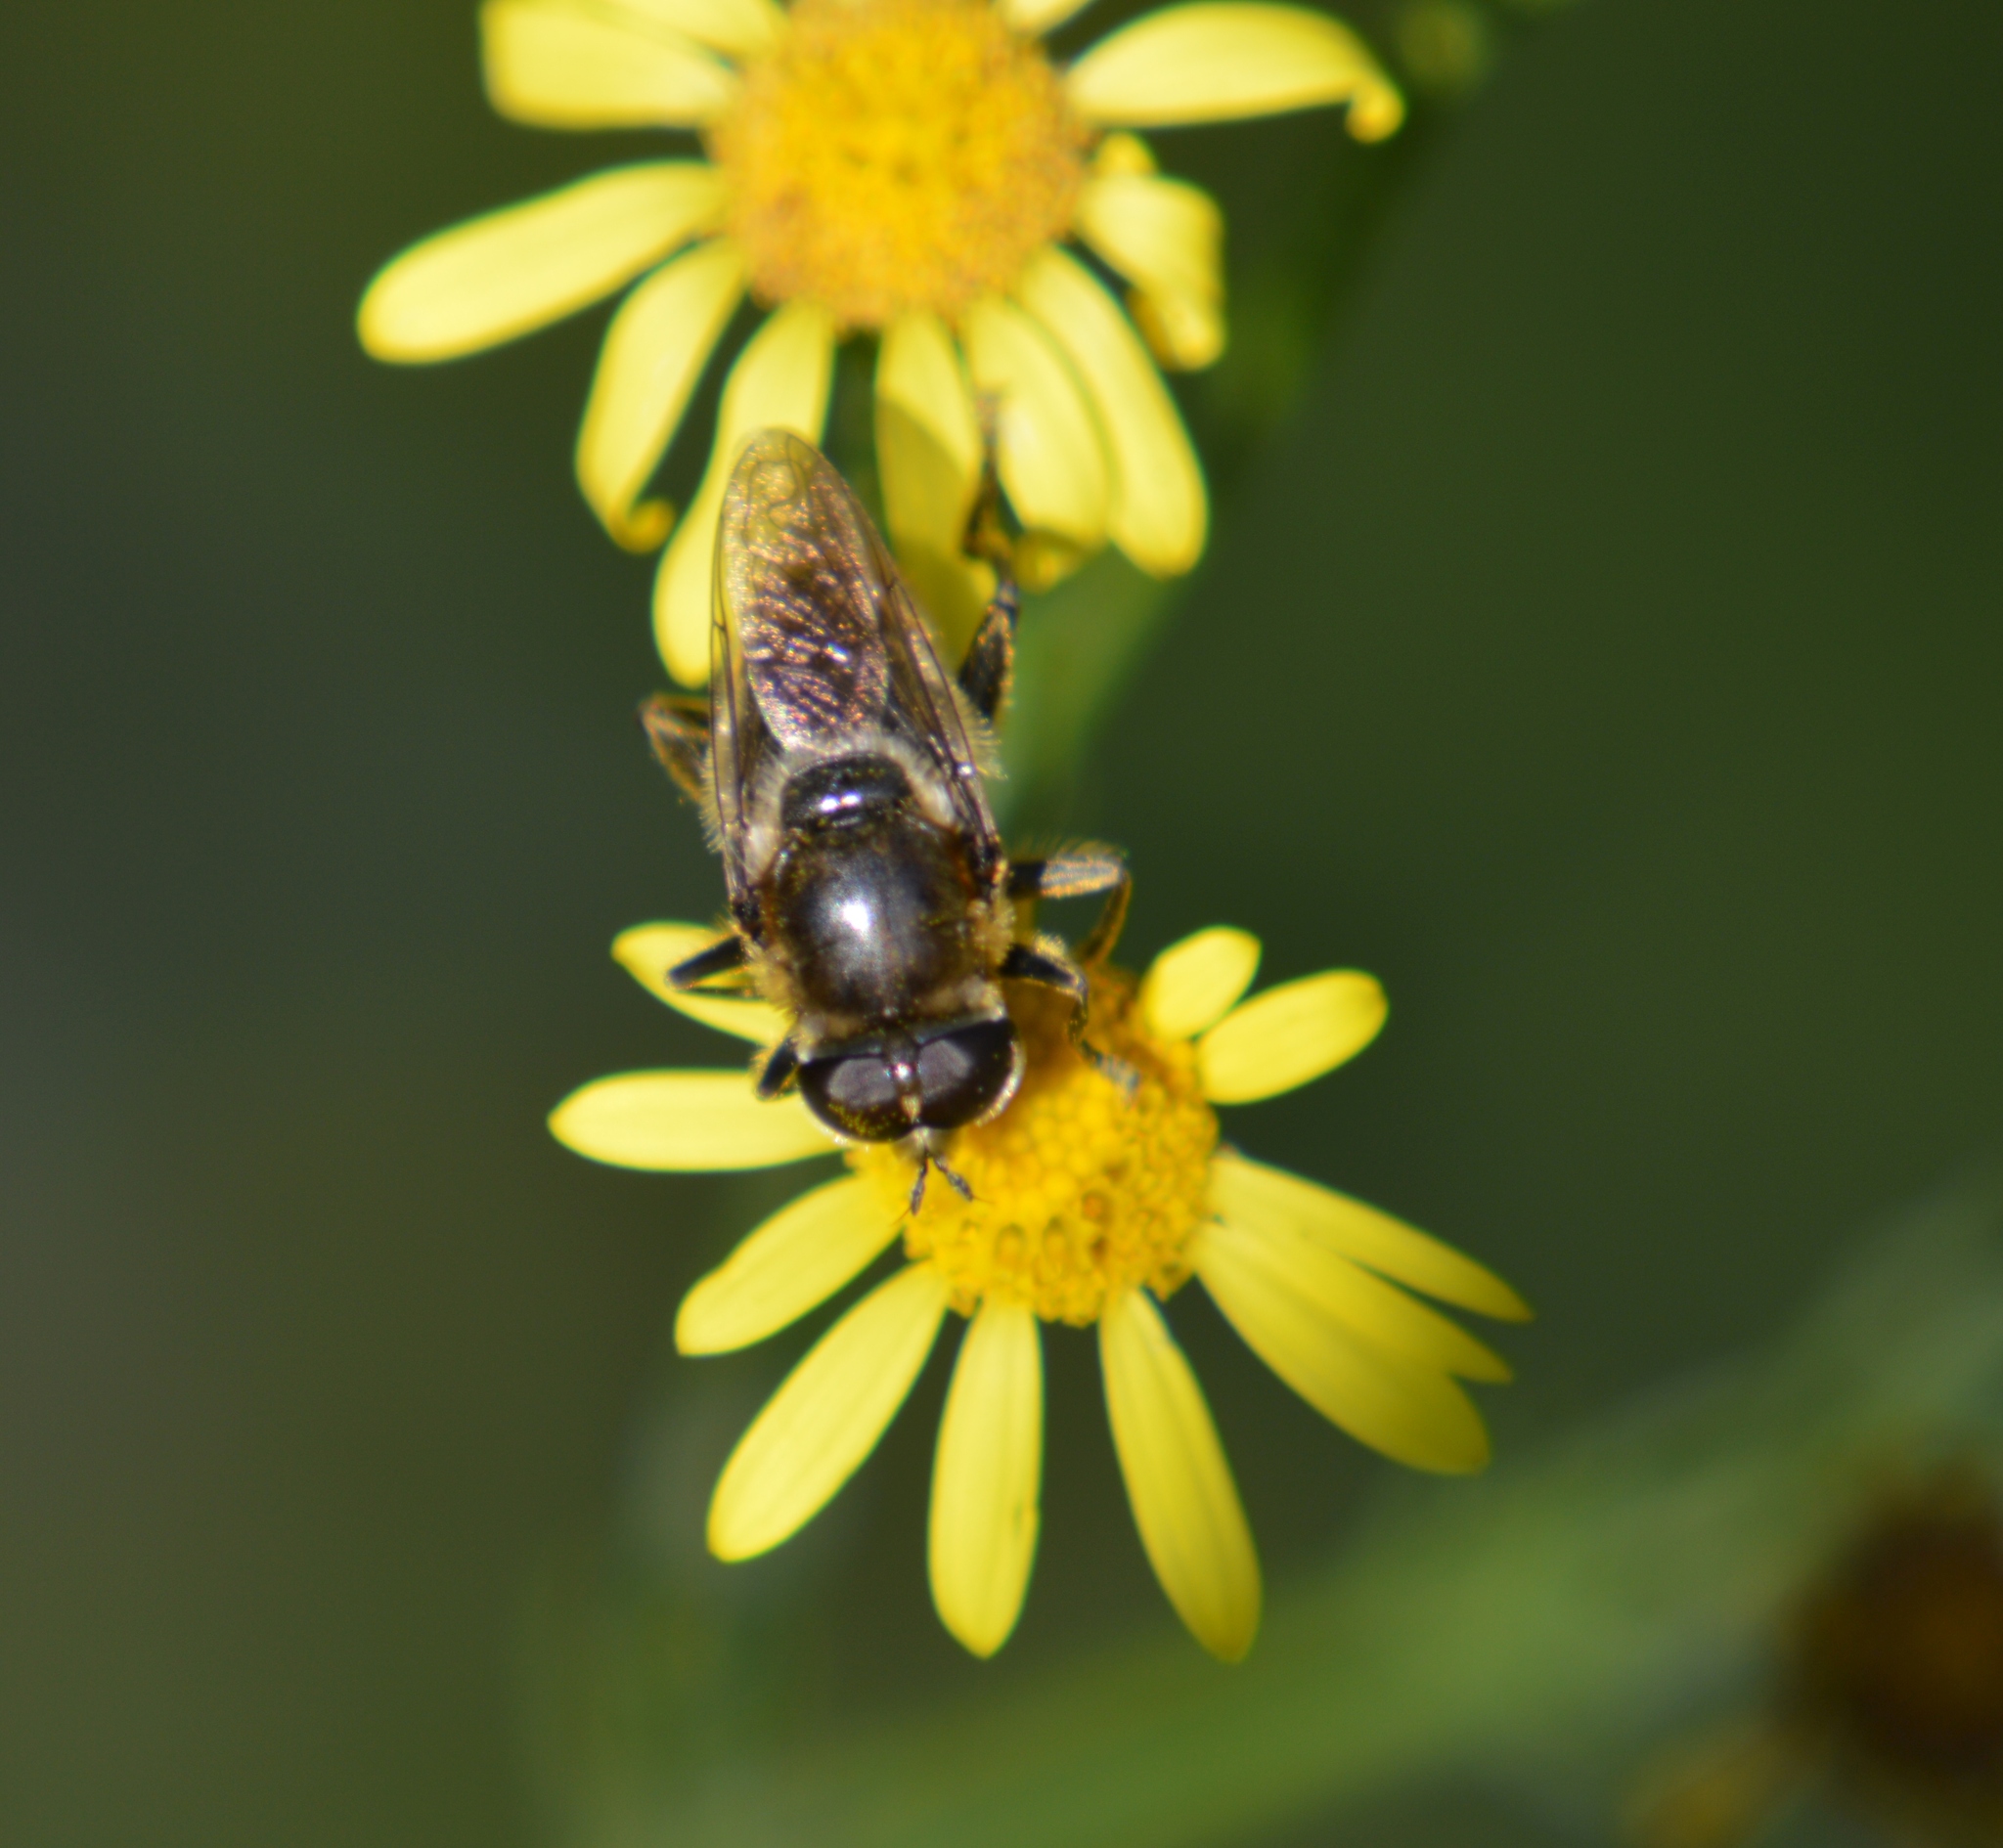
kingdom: Animalia
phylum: Arthropoda
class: Insecta
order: Diptera
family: Syrphidae
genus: Merodon
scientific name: Merodon constans
